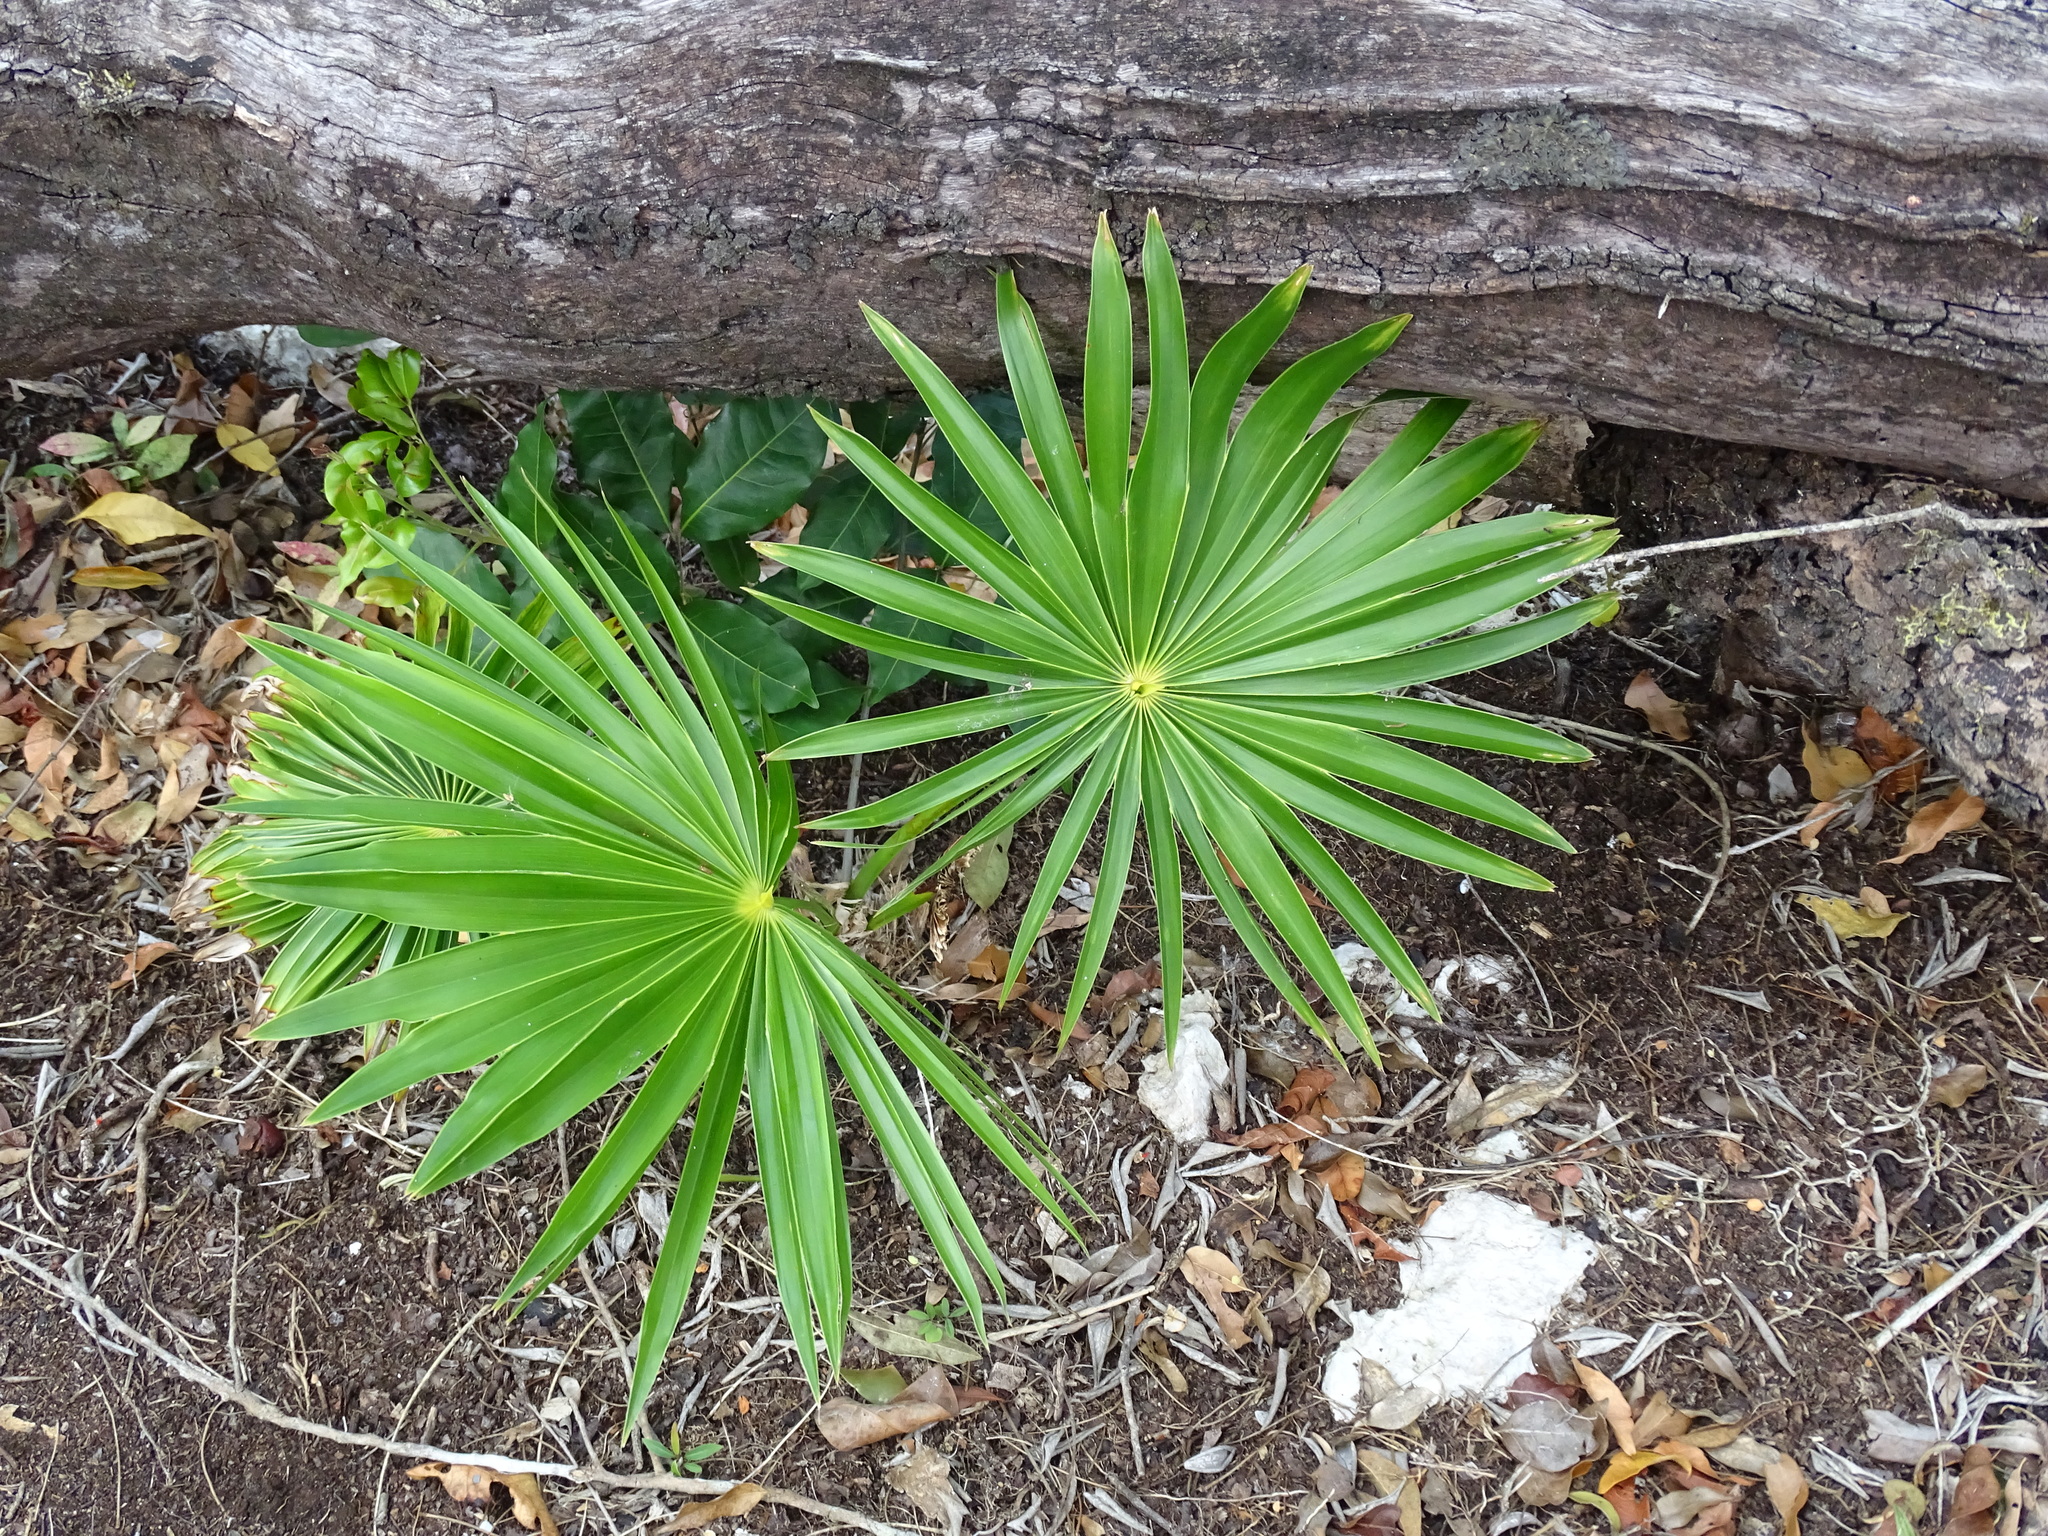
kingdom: Plantae
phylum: Tracheophyta
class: Liliopsida
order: Arecales
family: Arecaceae
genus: Thrinax
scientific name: Thrinax radiata
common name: Florida thatch
